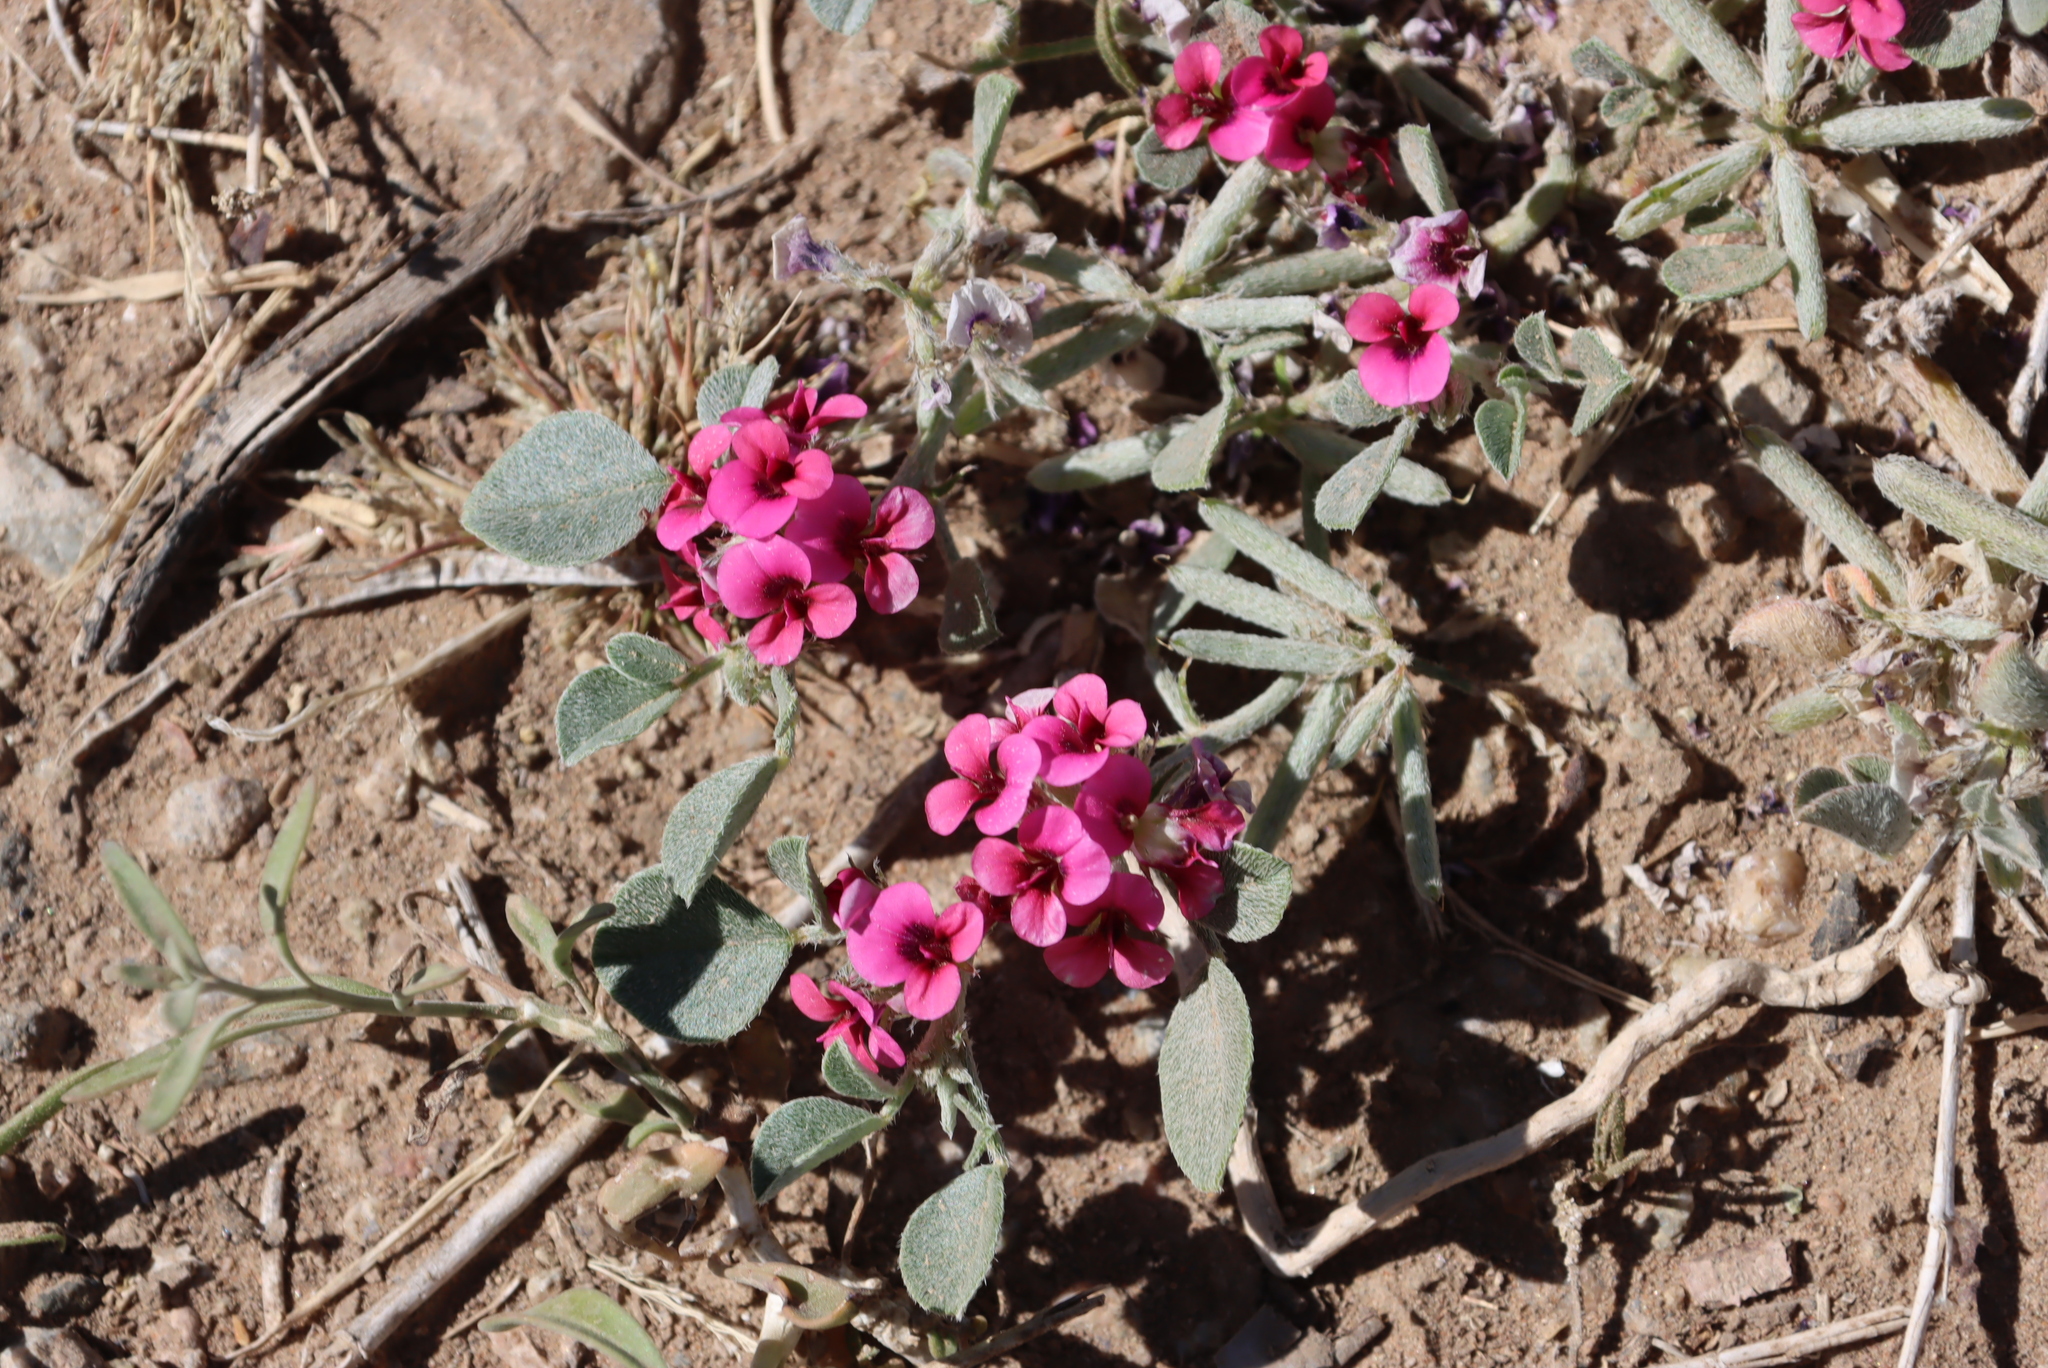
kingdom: Plantae
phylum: Tracheophyta
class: Magnoliopsida
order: Fabales
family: Fabaceae
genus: Indigastrum
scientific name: Indigastrum argyroides
